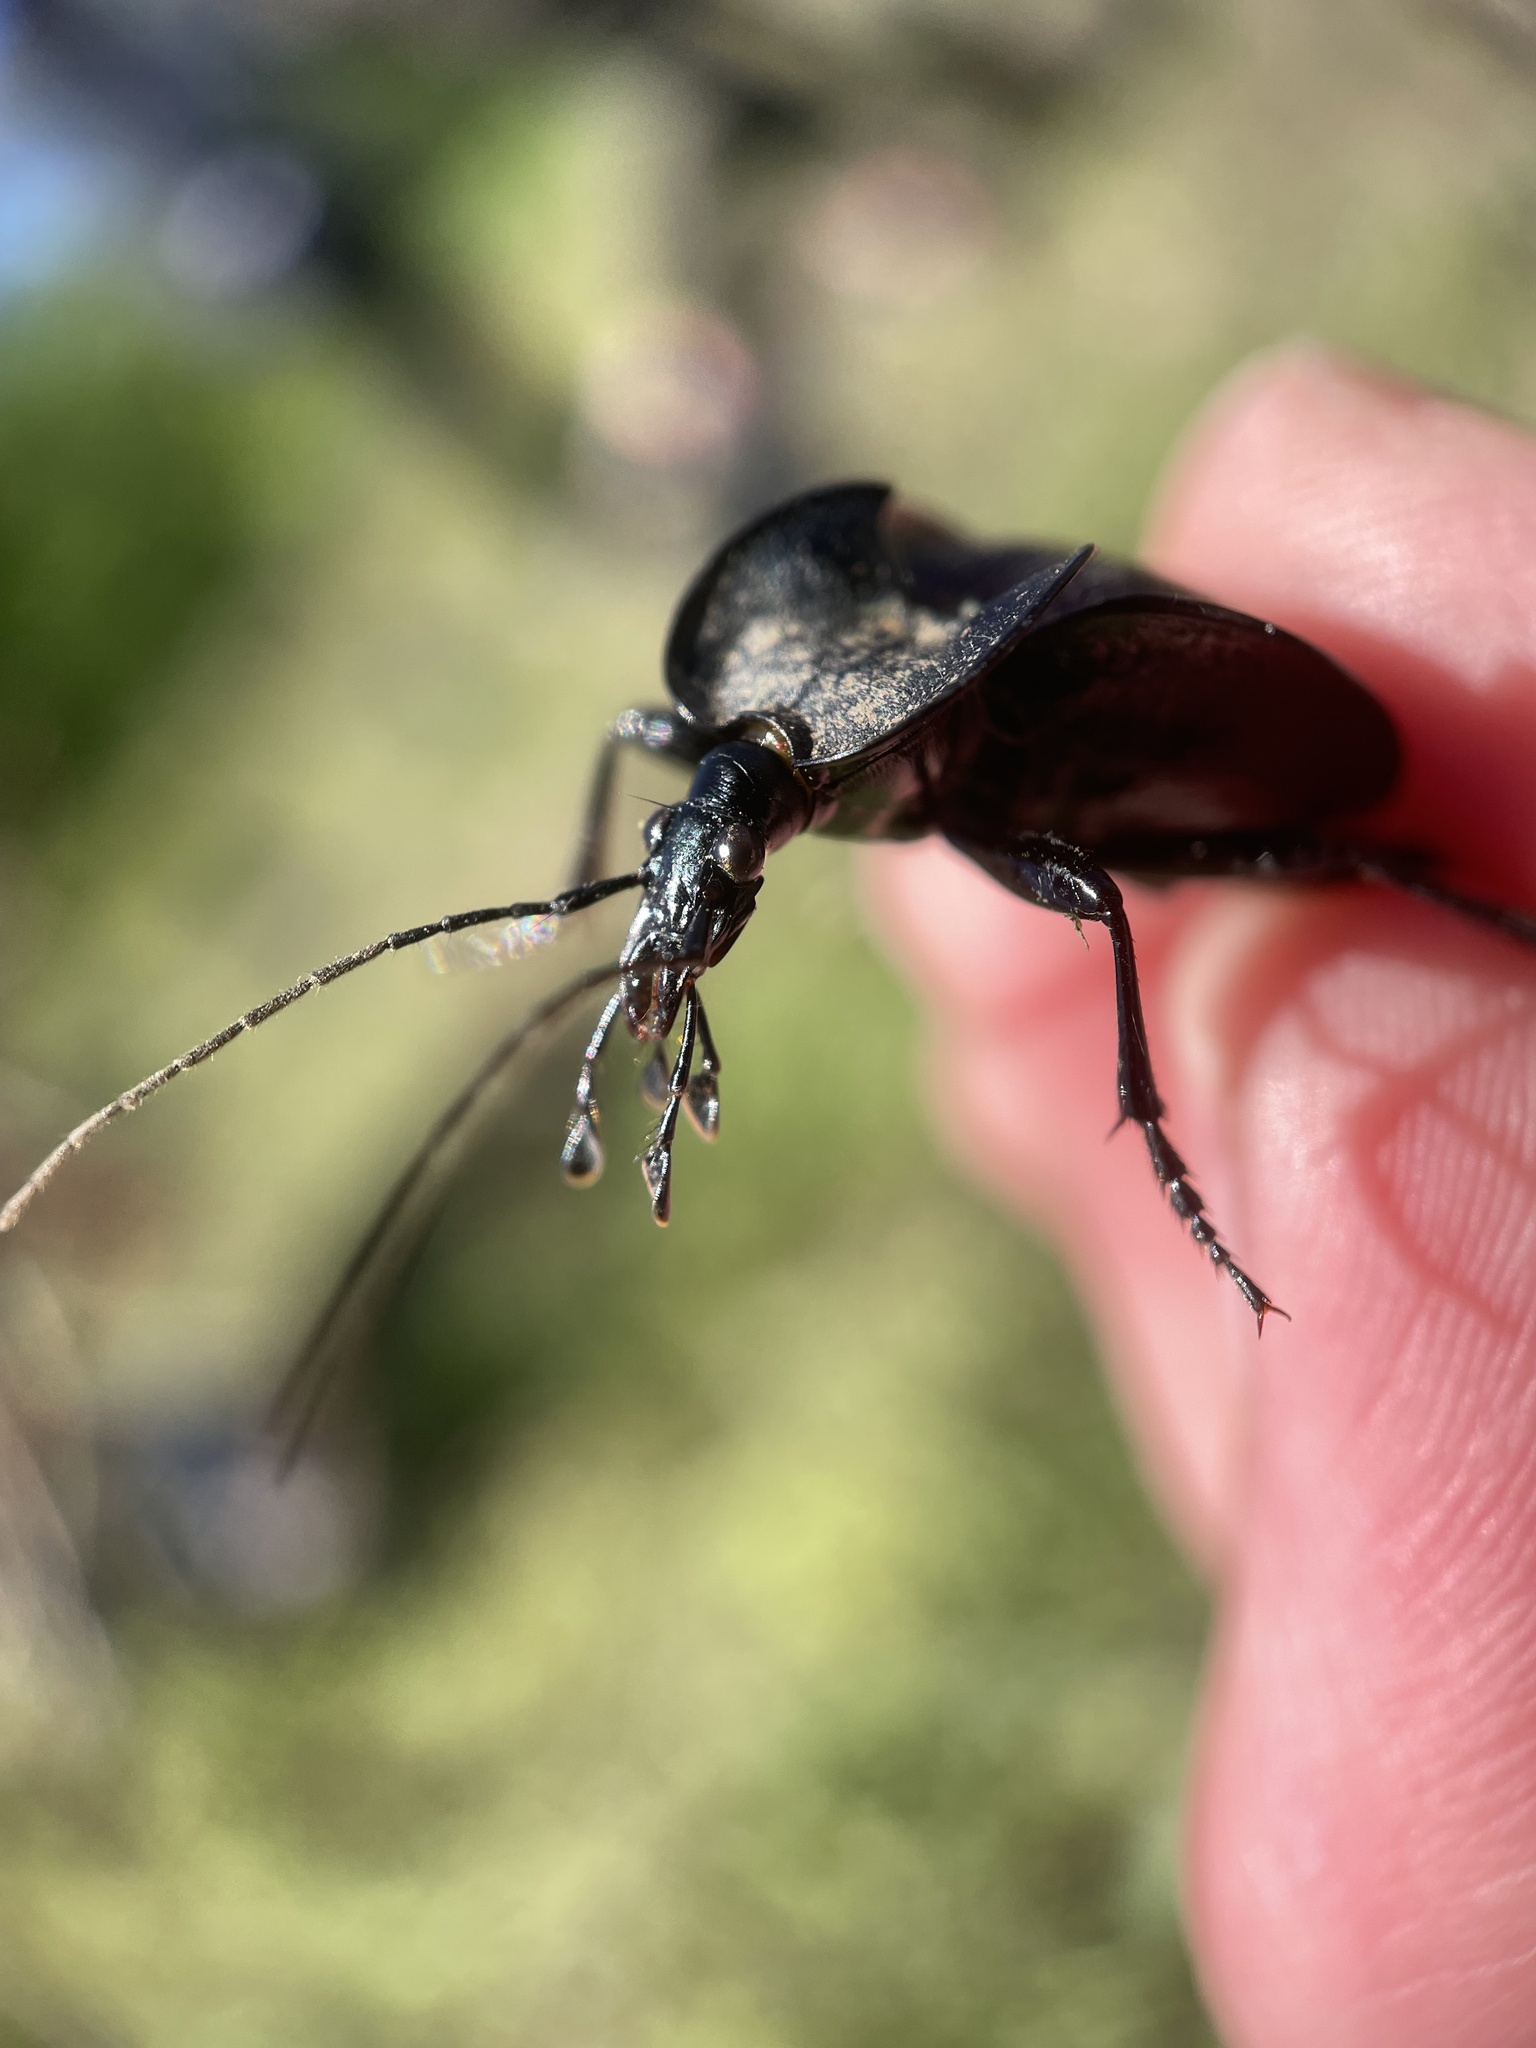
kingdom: Animalia
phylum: Arthropoda
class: Insecta
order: Coleoptera
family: Carabidae
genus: Scaphinotus
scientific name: Scaphinotus elevatus
